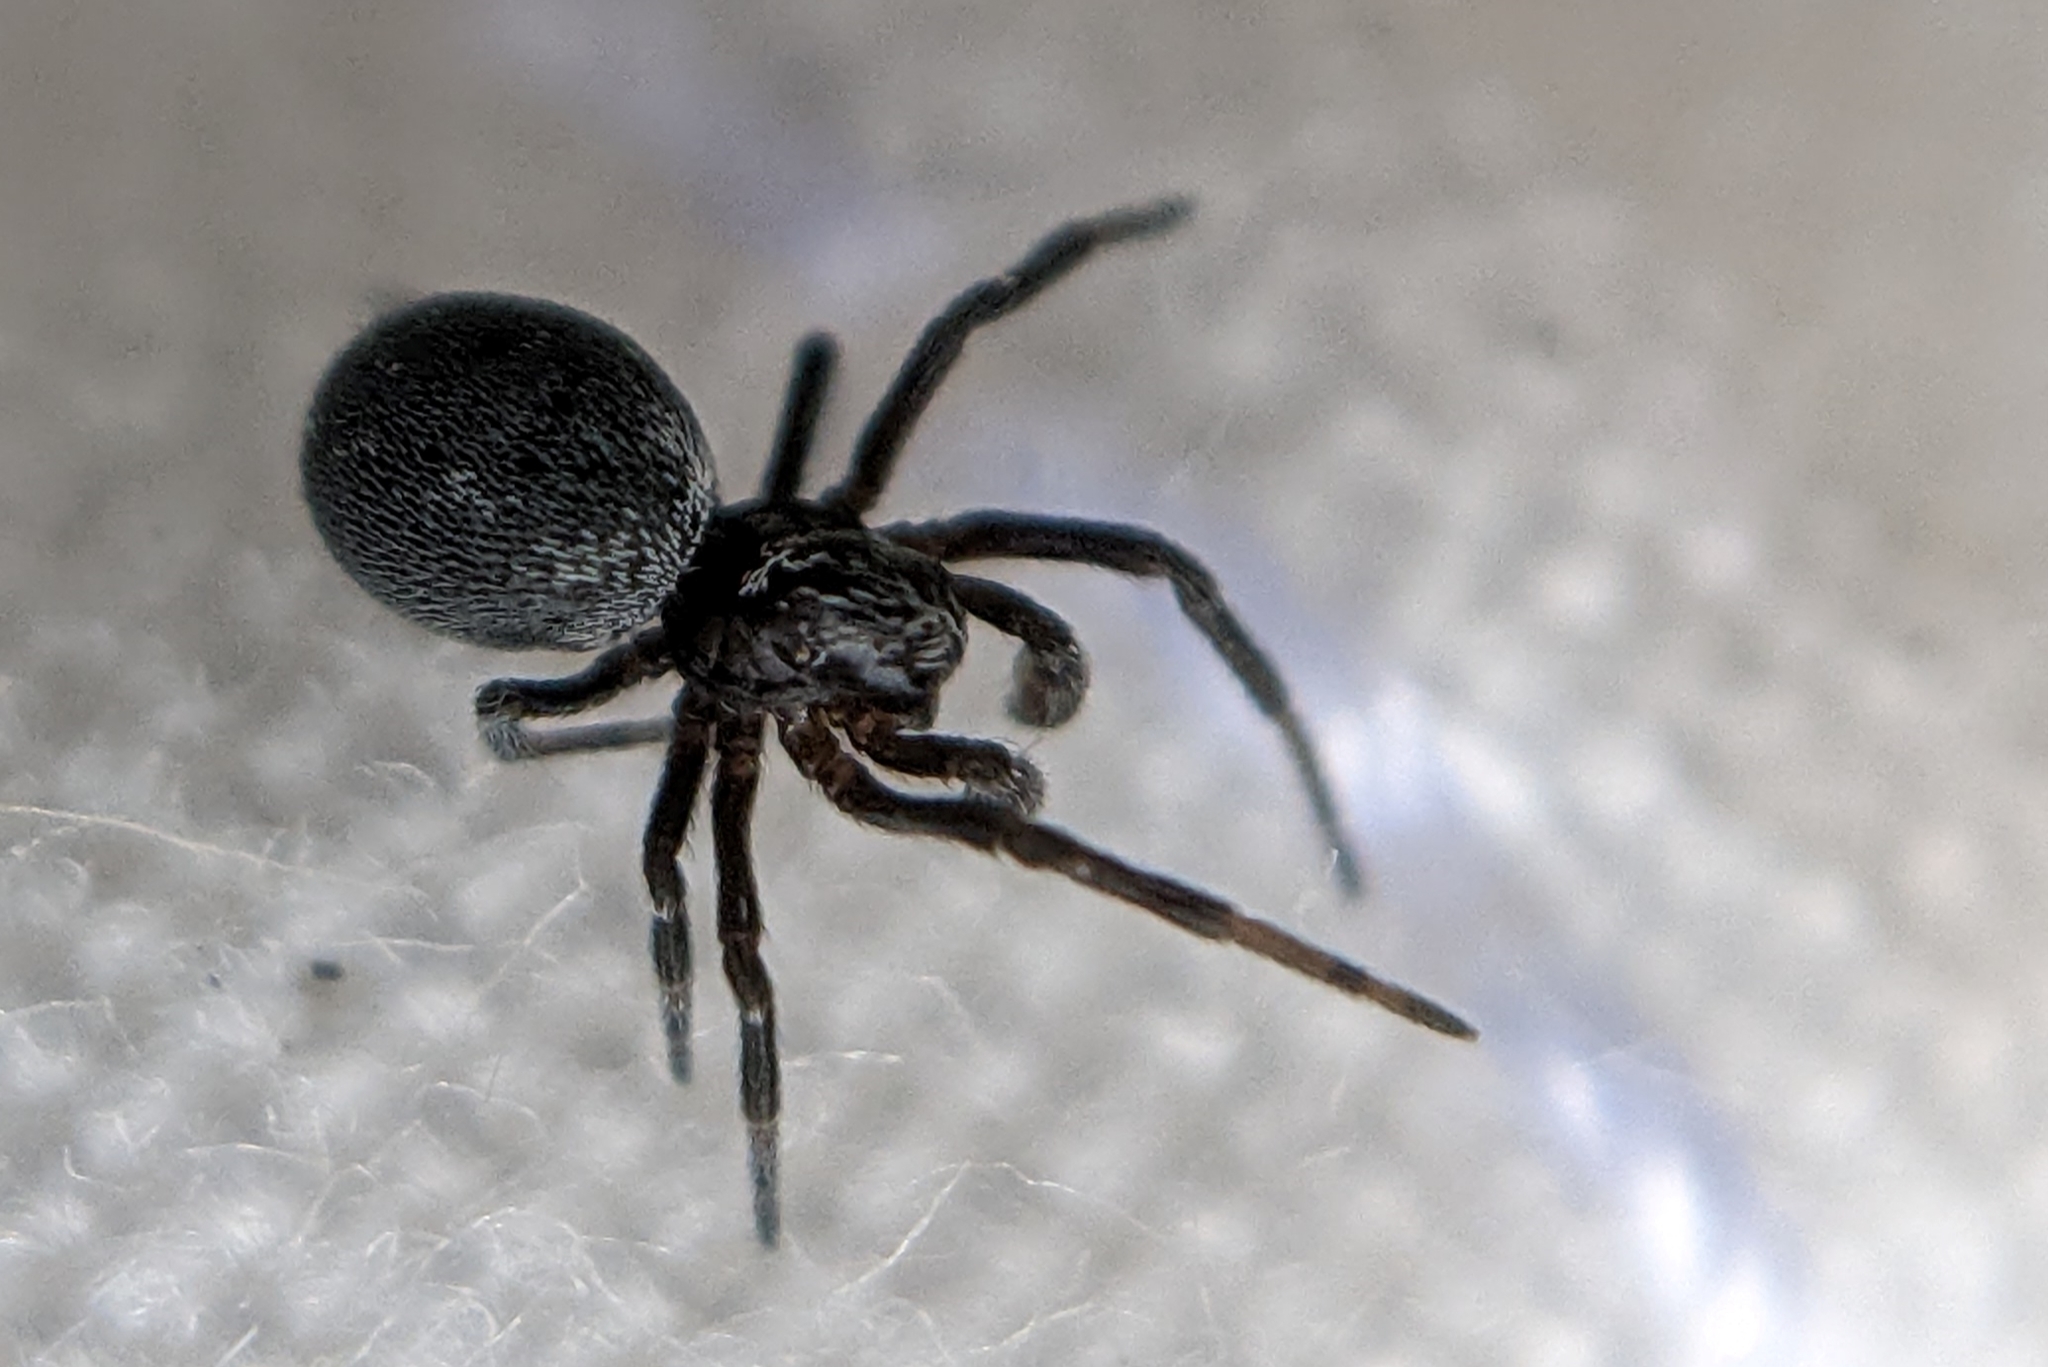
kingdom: Animalia
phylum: Arthropoda
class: Arachnida
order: Araneae
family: Dictynidae
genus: Brigittea
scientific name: Brigittea latens
